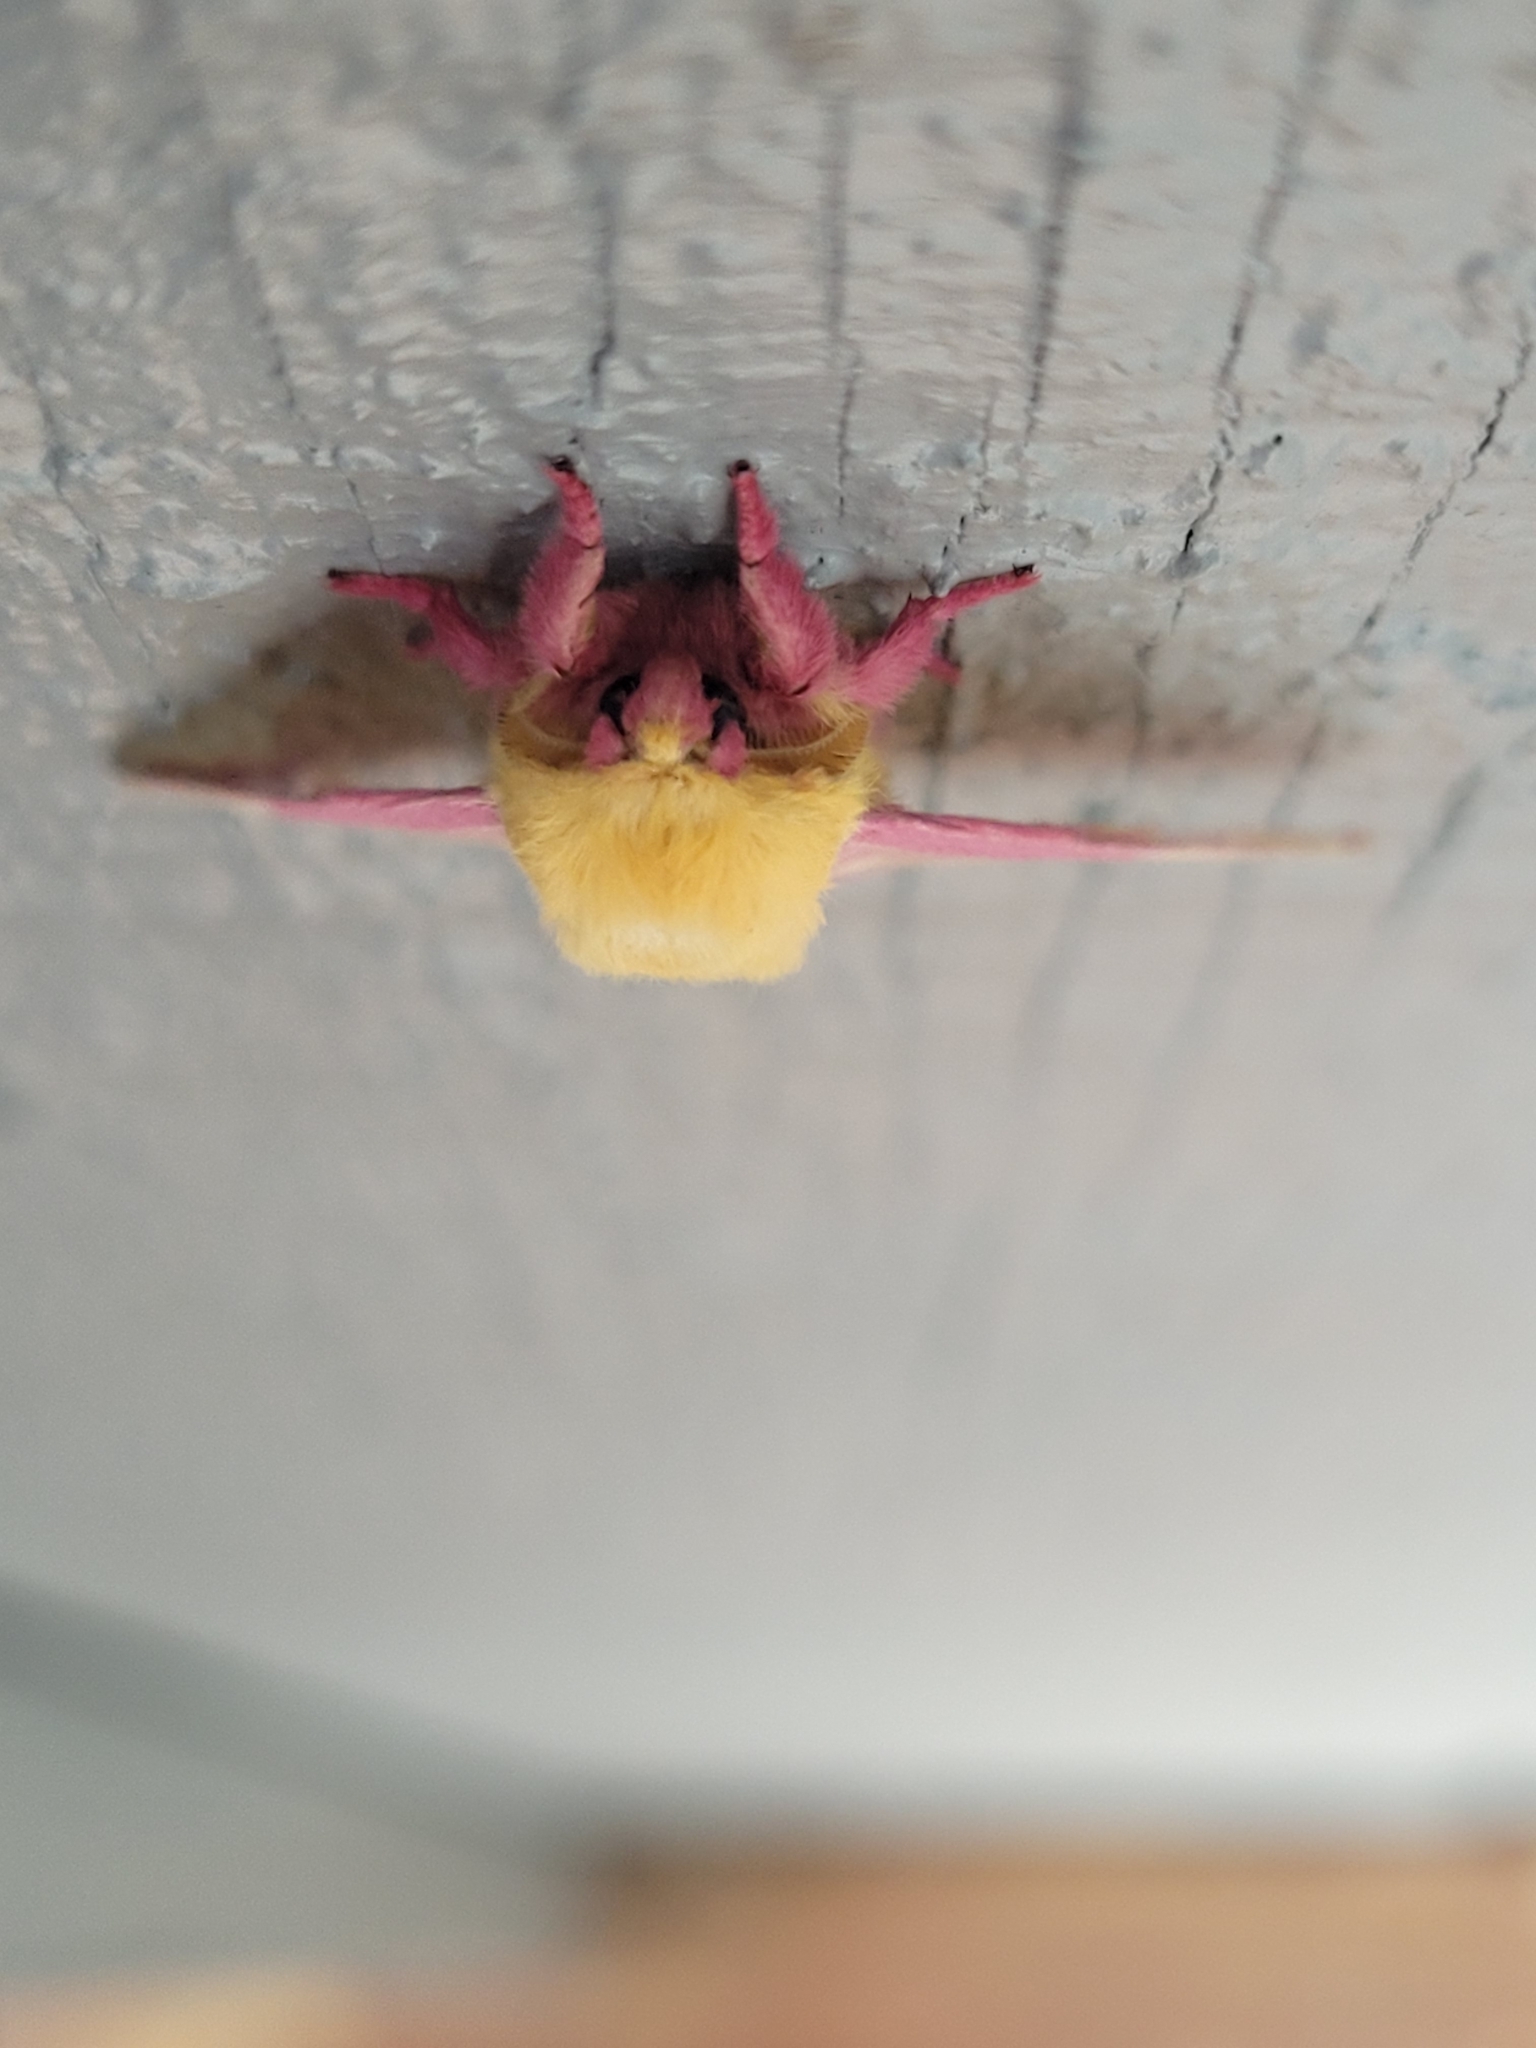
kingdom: Animalia
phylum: Arthropoda
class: Insecta
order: Lepidoptera
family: Saturniidae
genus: Dryocampa
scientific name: Dryocampa rubicunda
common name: Rosy maple moth
